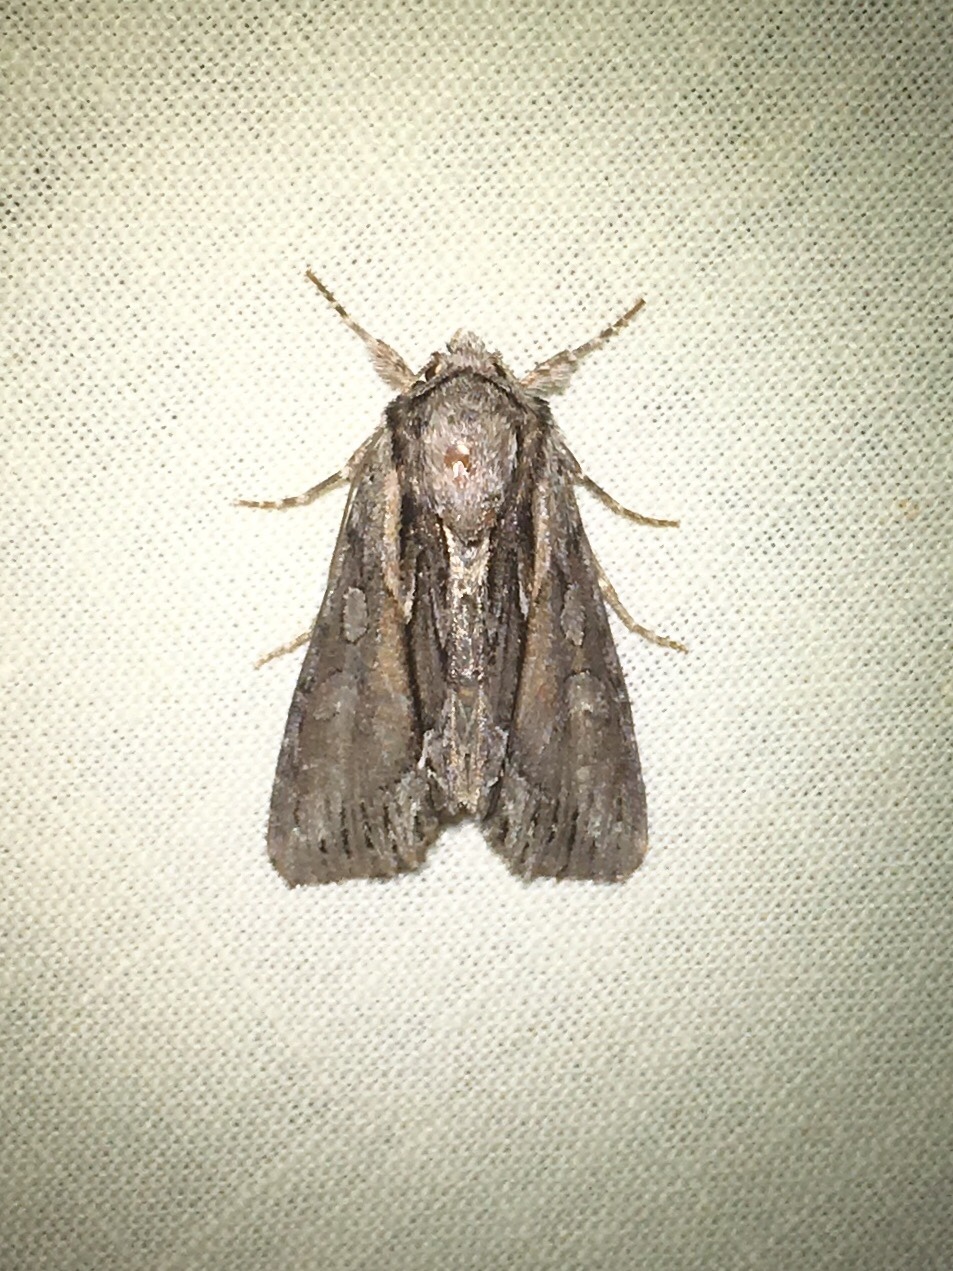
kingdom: Animalia
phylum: Arthropoda
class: Insecta
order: Lepidoptera
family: Noctuidae
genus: Hyppa
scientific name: Hyppa xylinoides
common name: Common hyppa moth
